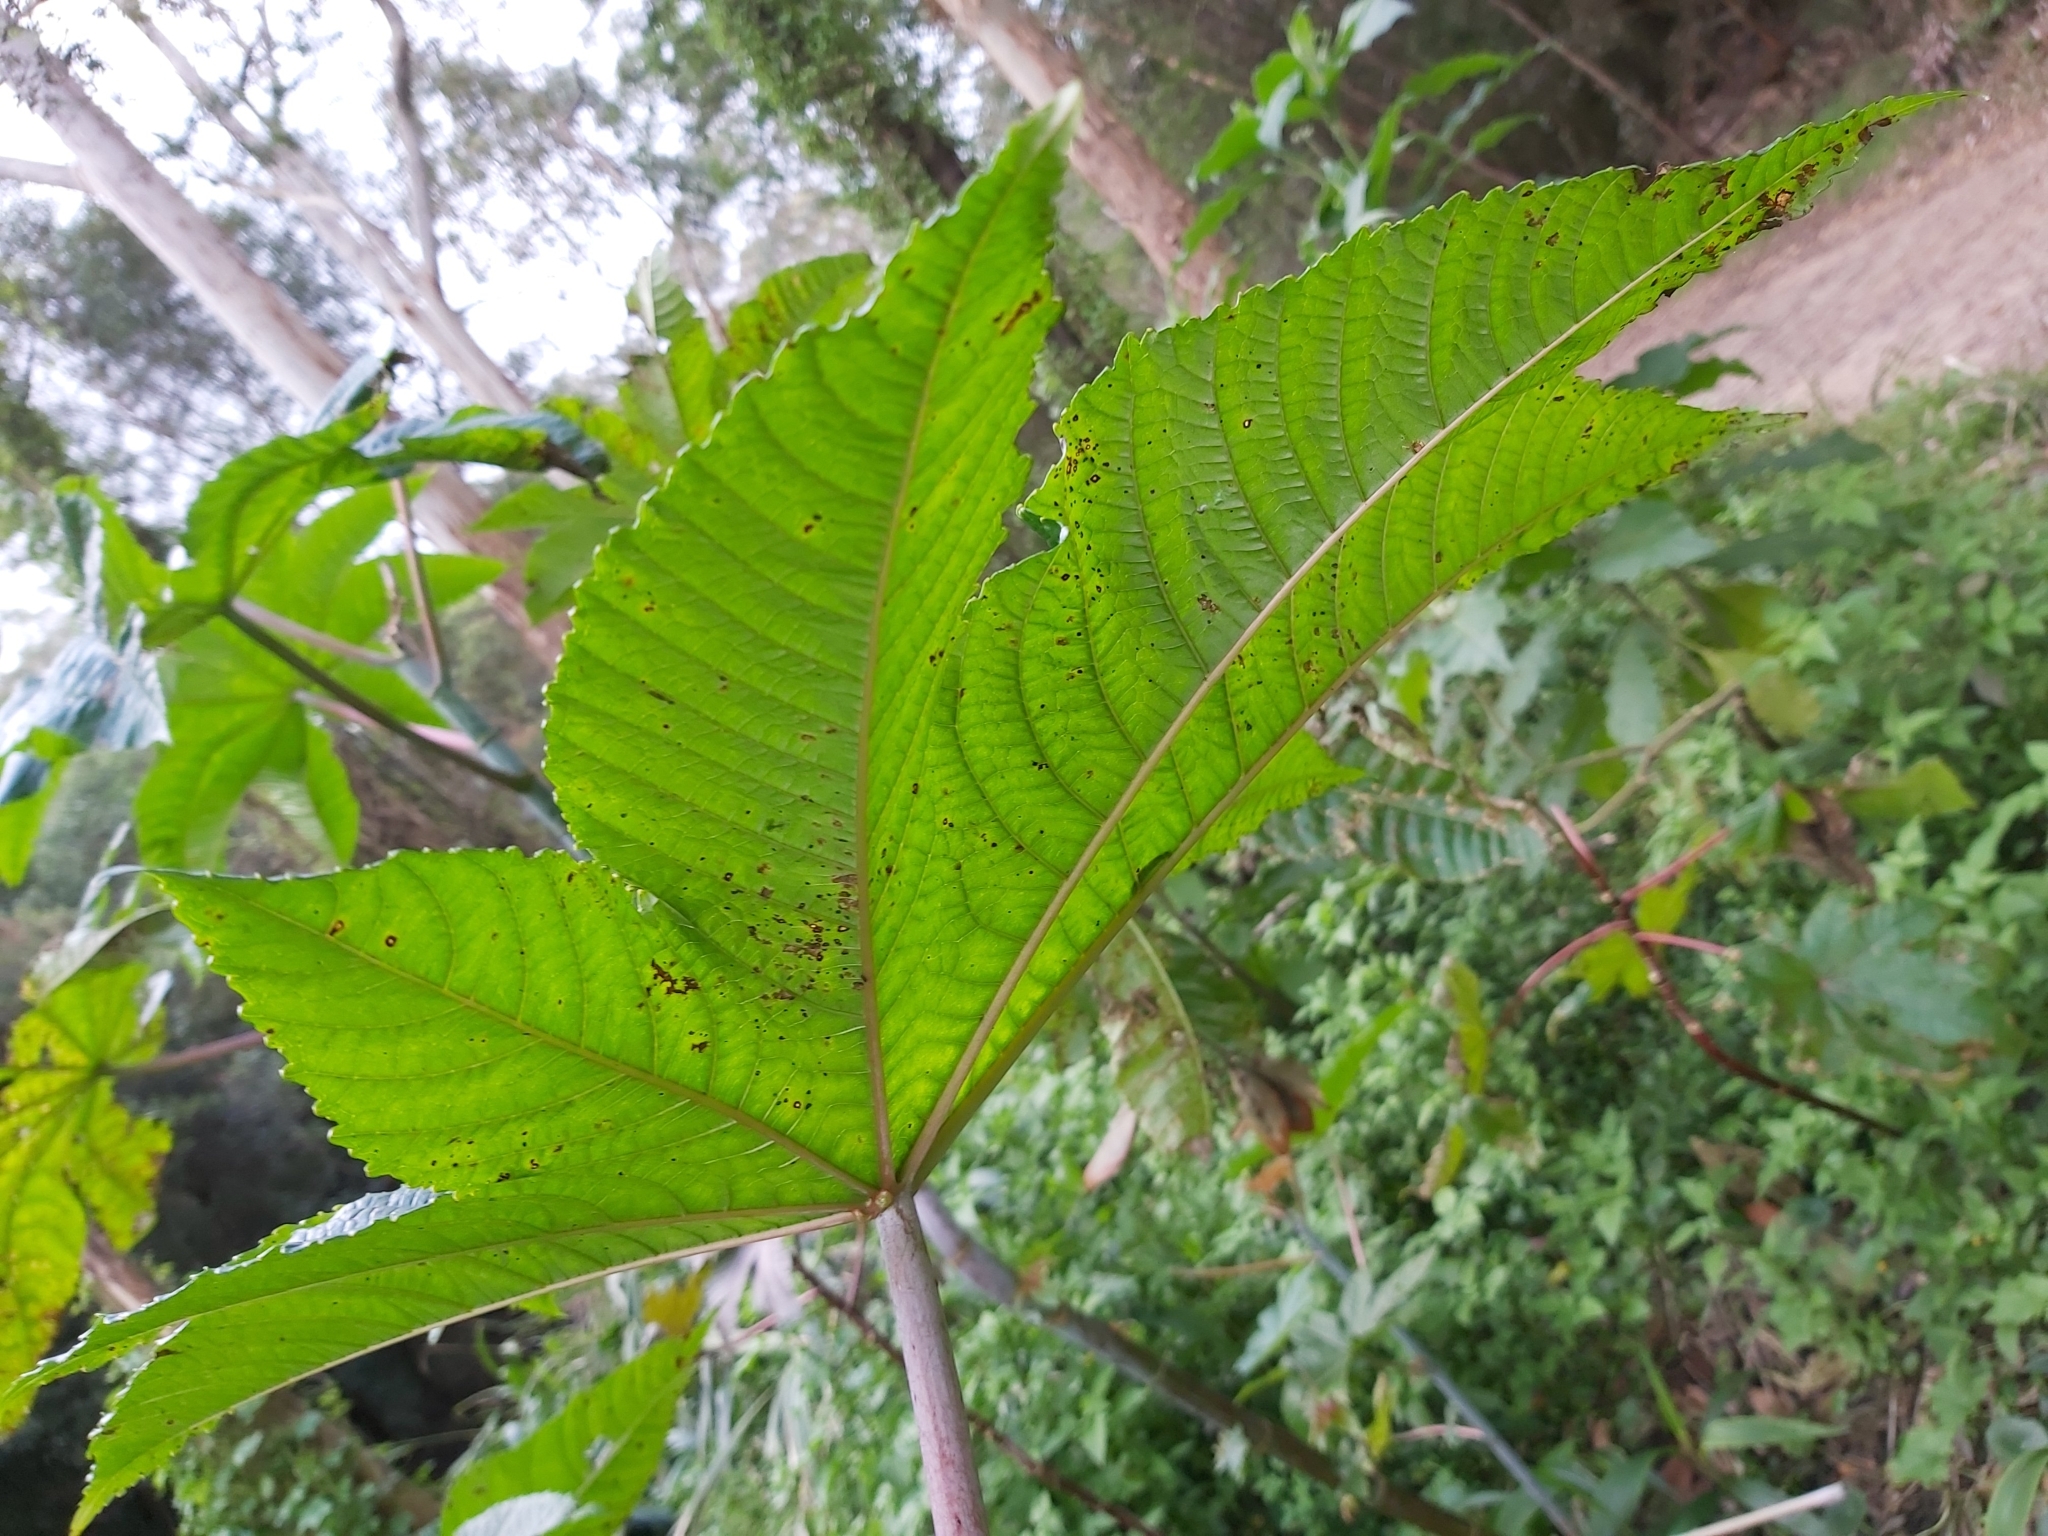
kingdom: Plantae
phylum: Tracheophyta
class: Magnoliopsida
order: Malpighiales
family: Euphorbiaceae
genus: Ricinus
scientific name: Ricinus communis
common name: Castor-oil-plant
